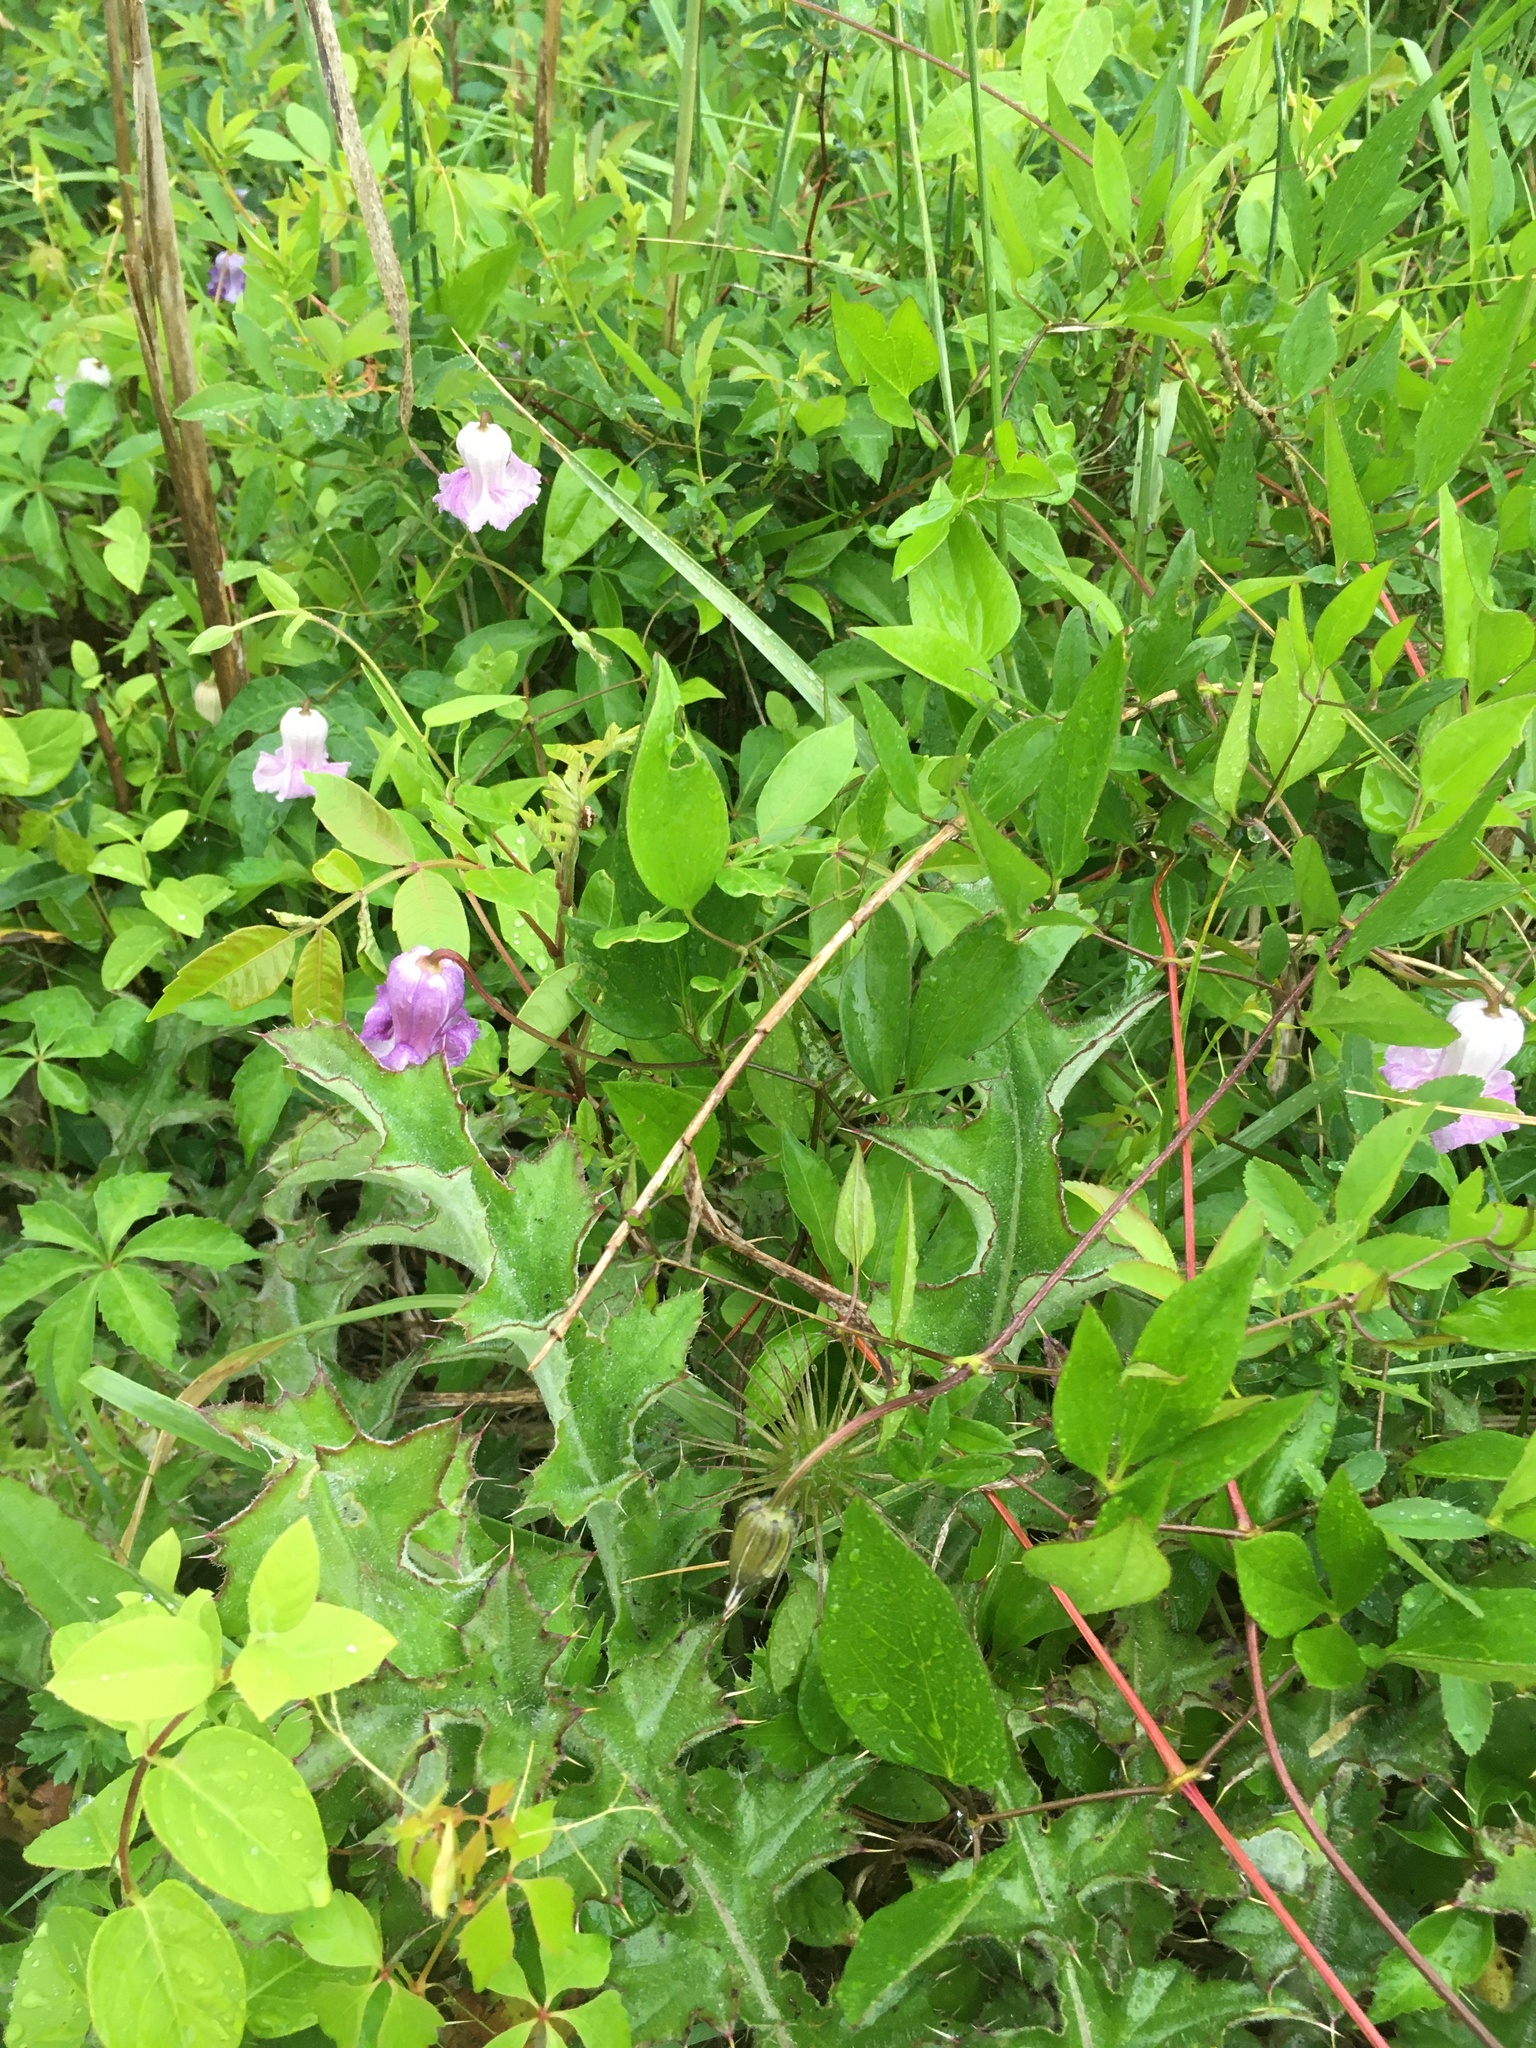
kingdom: Plantae
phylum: Tracheophyta
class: Magnoliopsida
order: Ranunculales
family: Ranunculaceae
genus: Clematis
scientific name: Clematis crispa
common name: Curly clematis
